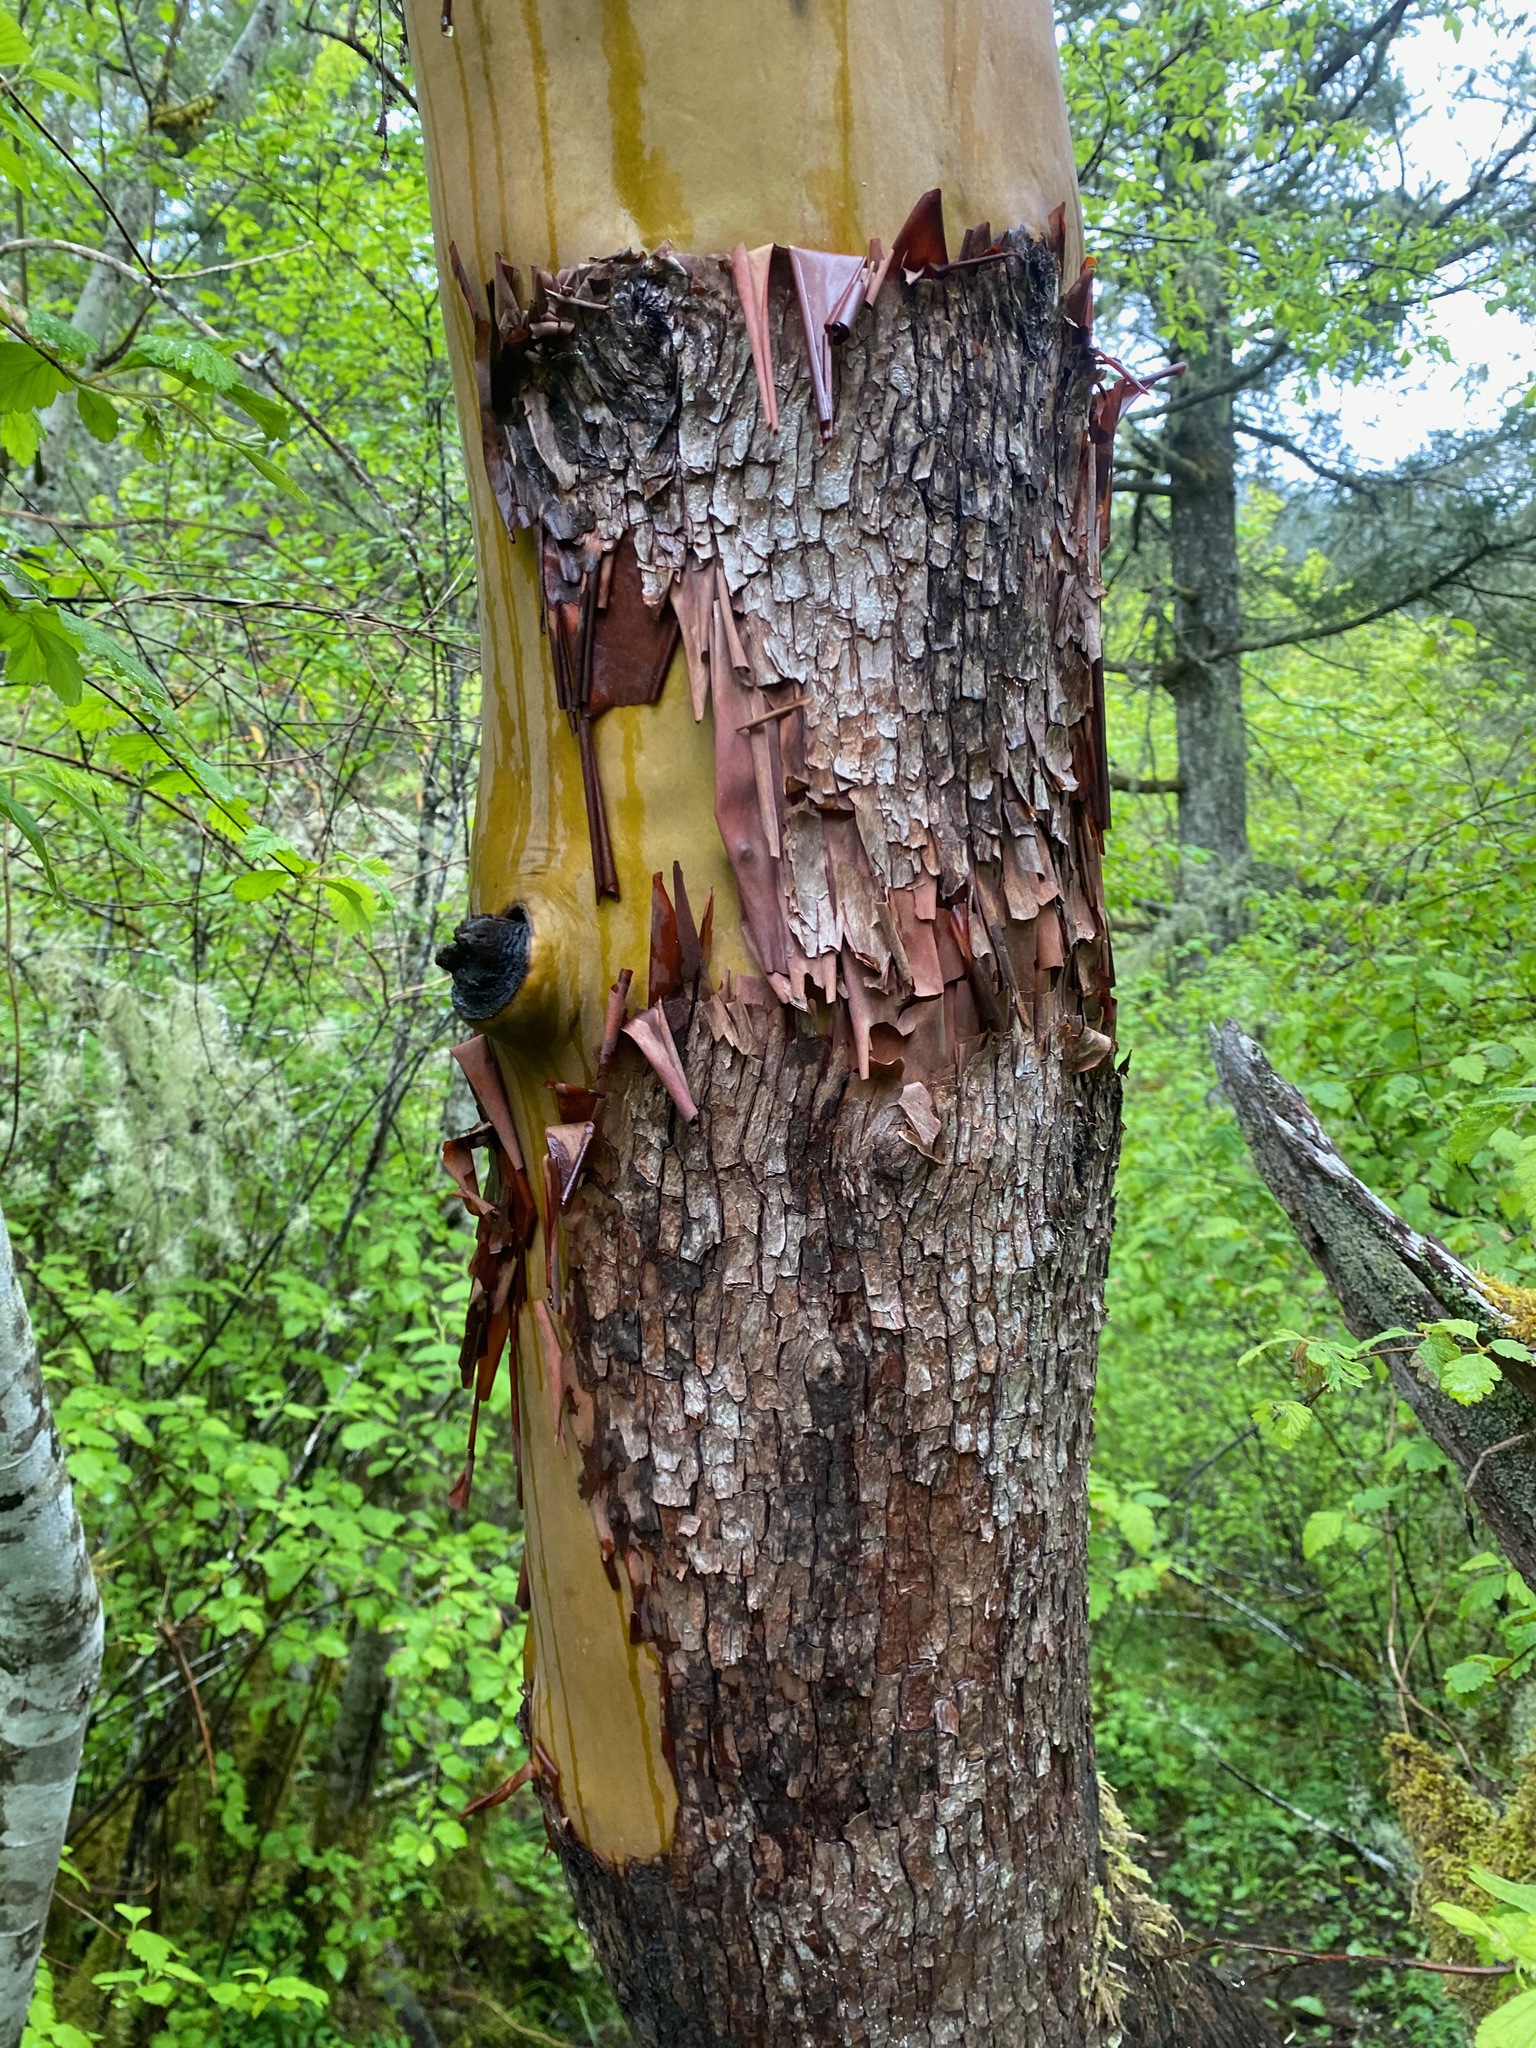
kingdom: Plantae
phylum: Tracheophyta
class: Magnoliopsida
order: Ericales
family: Ericaceae
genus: Arbutus
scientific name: Arbutus menziesii
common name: Pacific madrone
